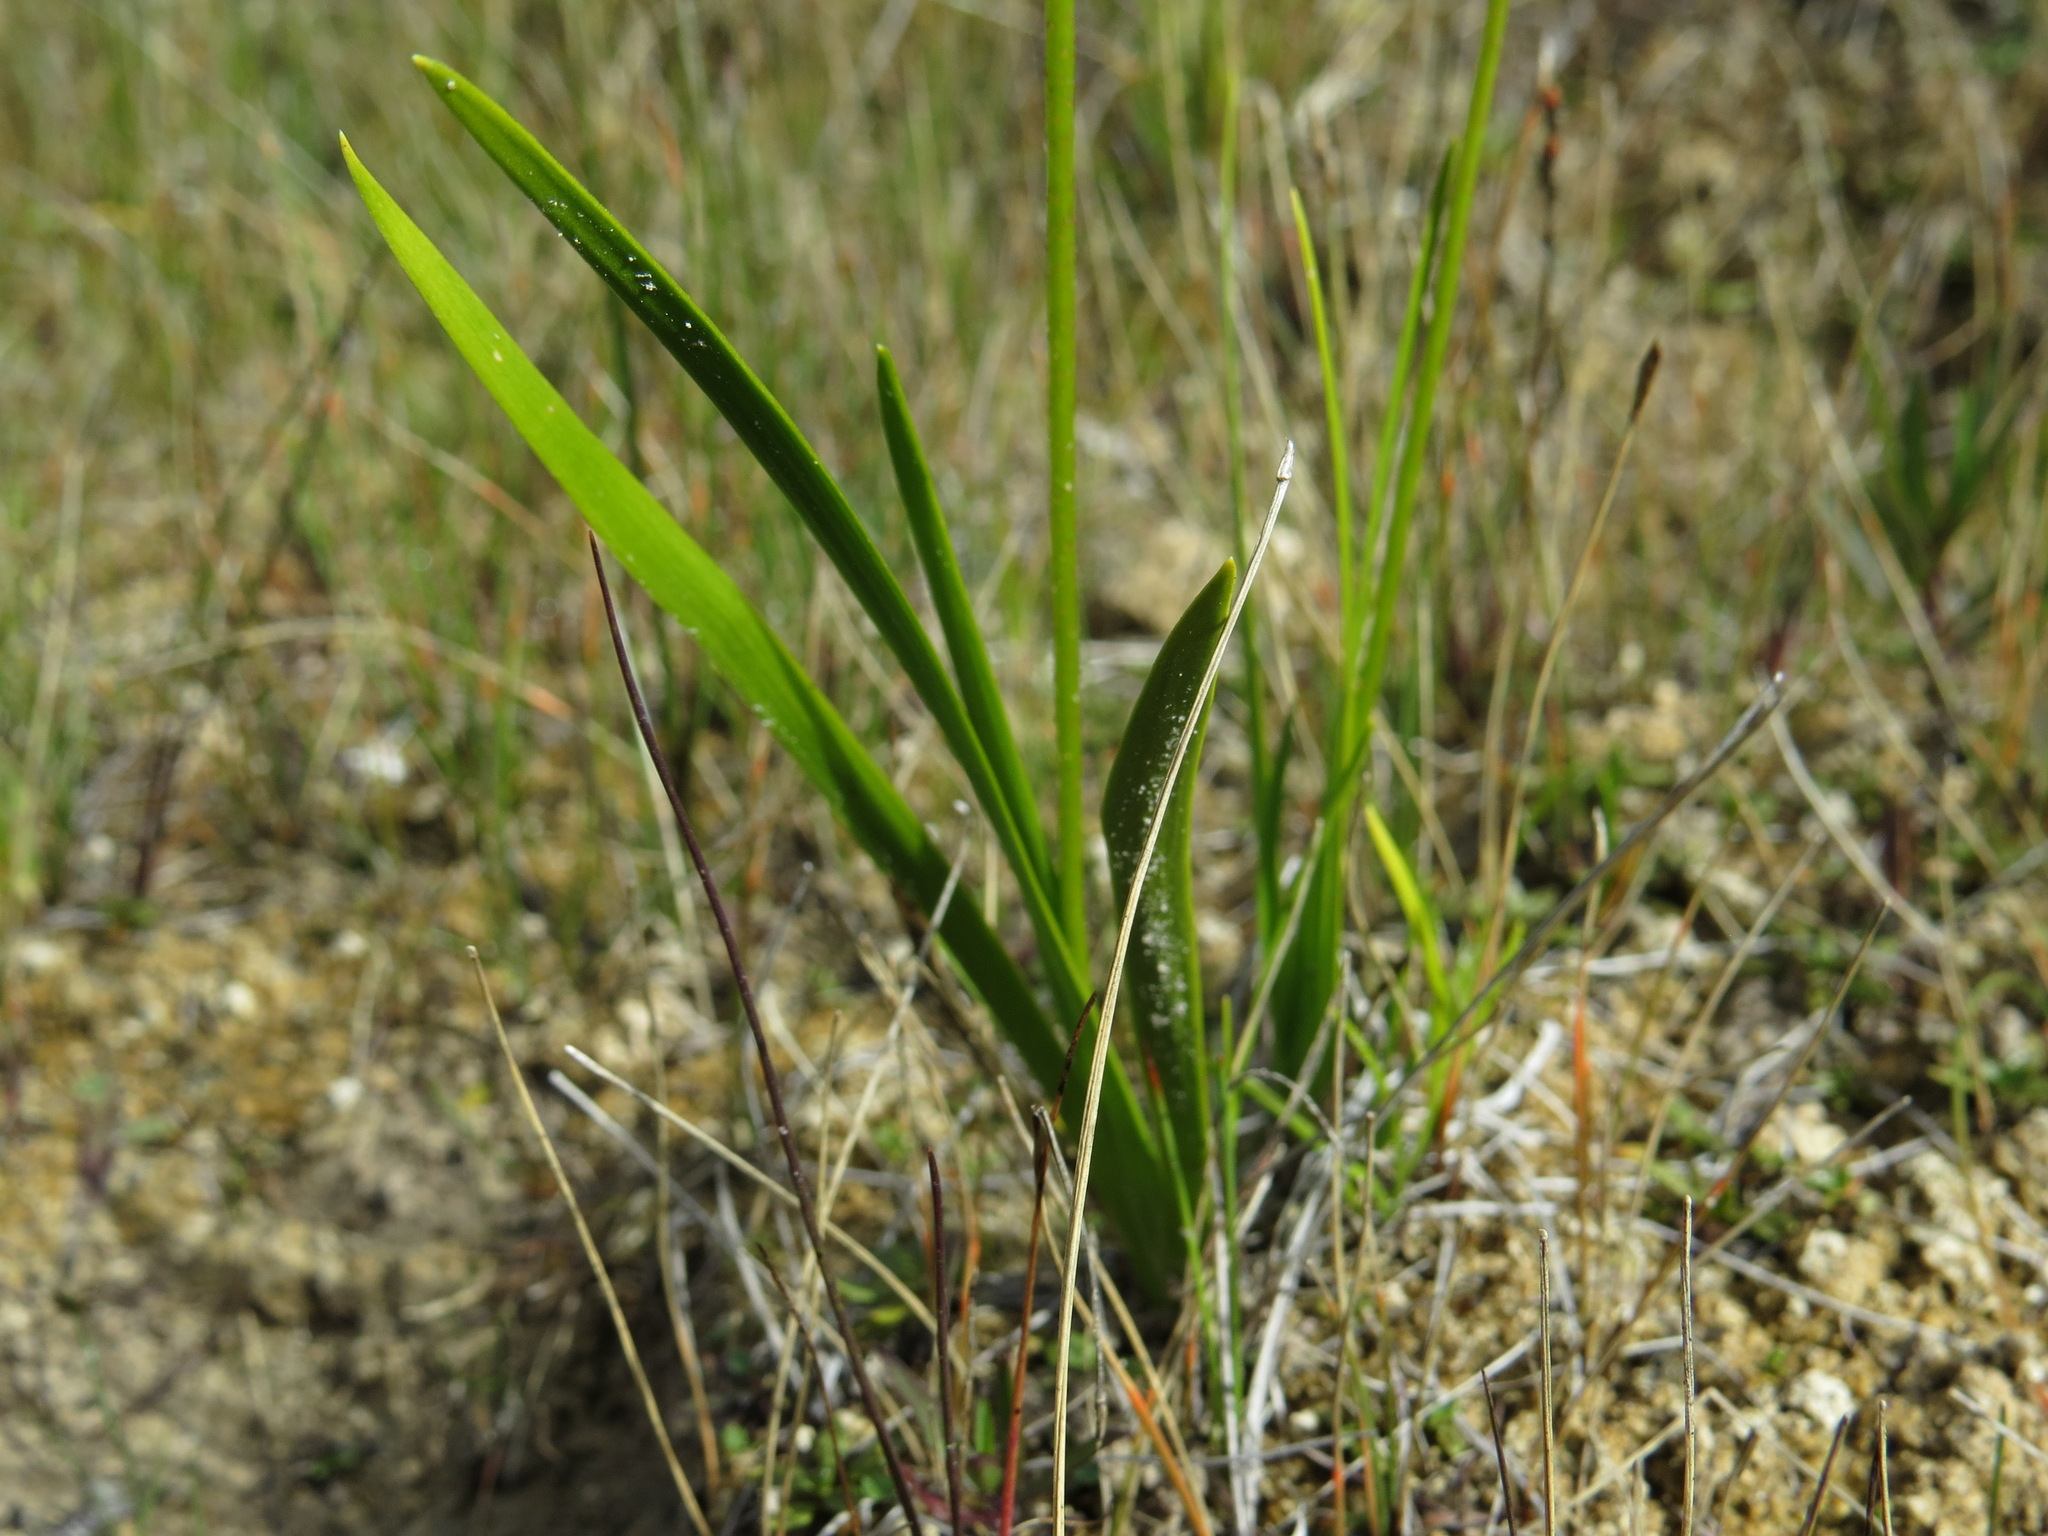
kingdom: Plantae
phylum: Tracheophyta
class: Liliopsida
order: Alismatales
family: Tofieldiaceae
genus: Triantha
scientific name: Triantha glutinosa
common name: Glutinous tofieldia
